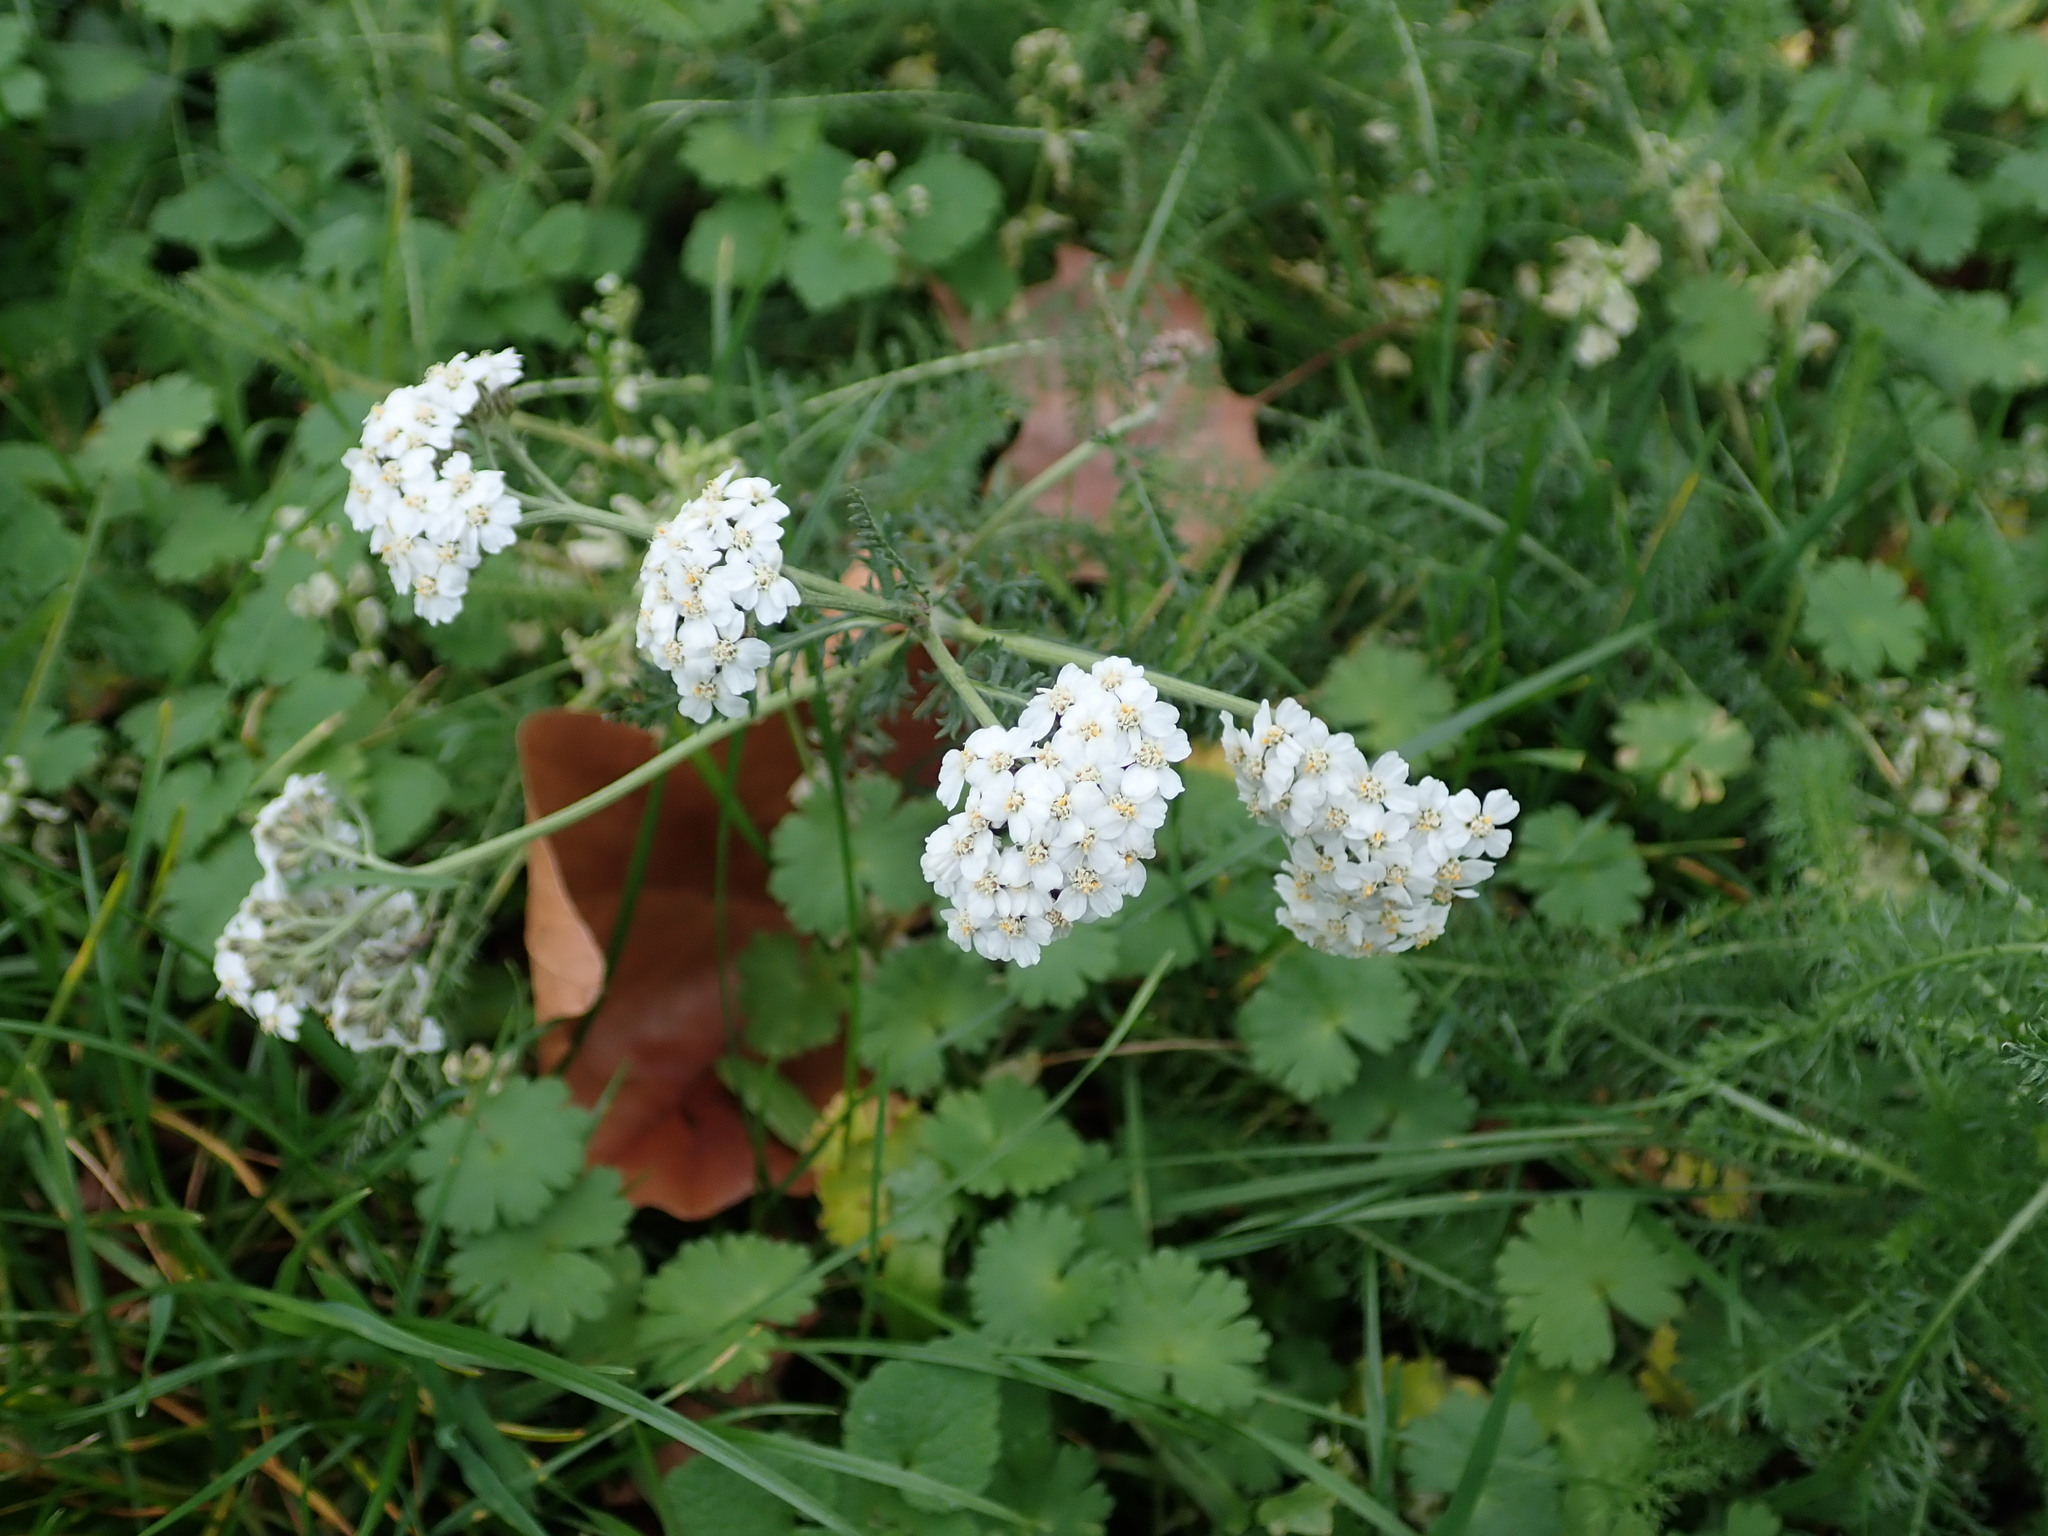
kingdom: Plantae
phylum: Tracheophyta
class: Magnoliopsida
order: Asterales
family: Asteraceae
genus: Achillea
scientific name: Achillea millefolium
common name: Yarrow
